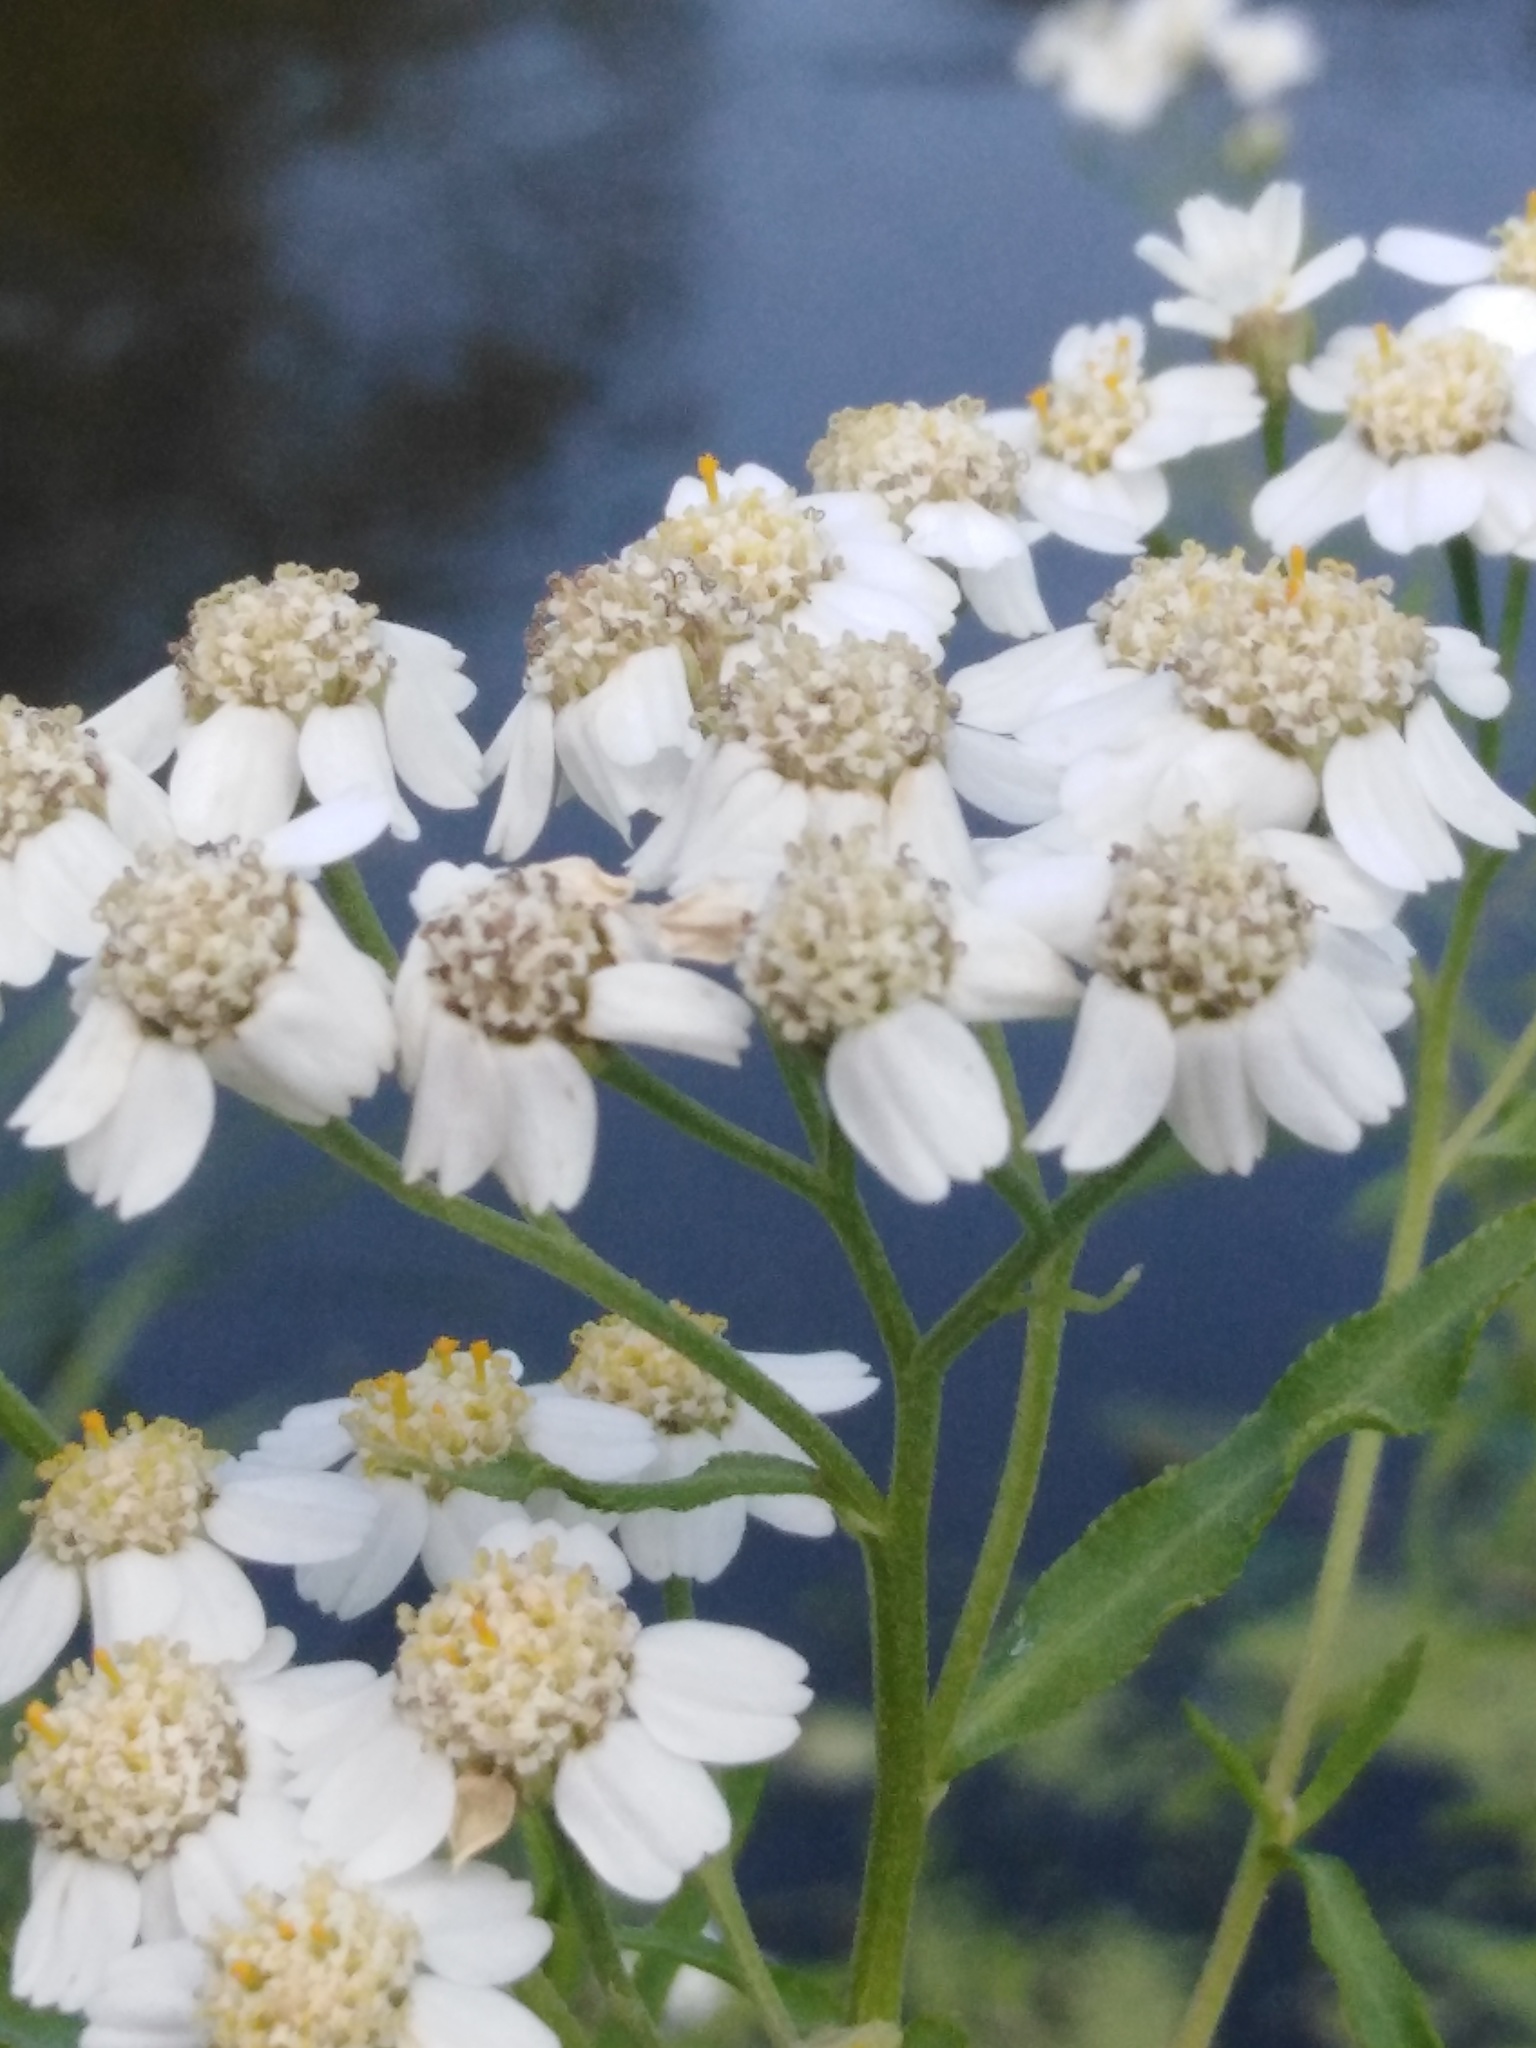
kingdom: Plantae
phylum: Tracheophyta
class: Magnoliopsida
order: Asterales
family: Asteraceae
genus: Achillea
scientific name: Achillea salicifolia
